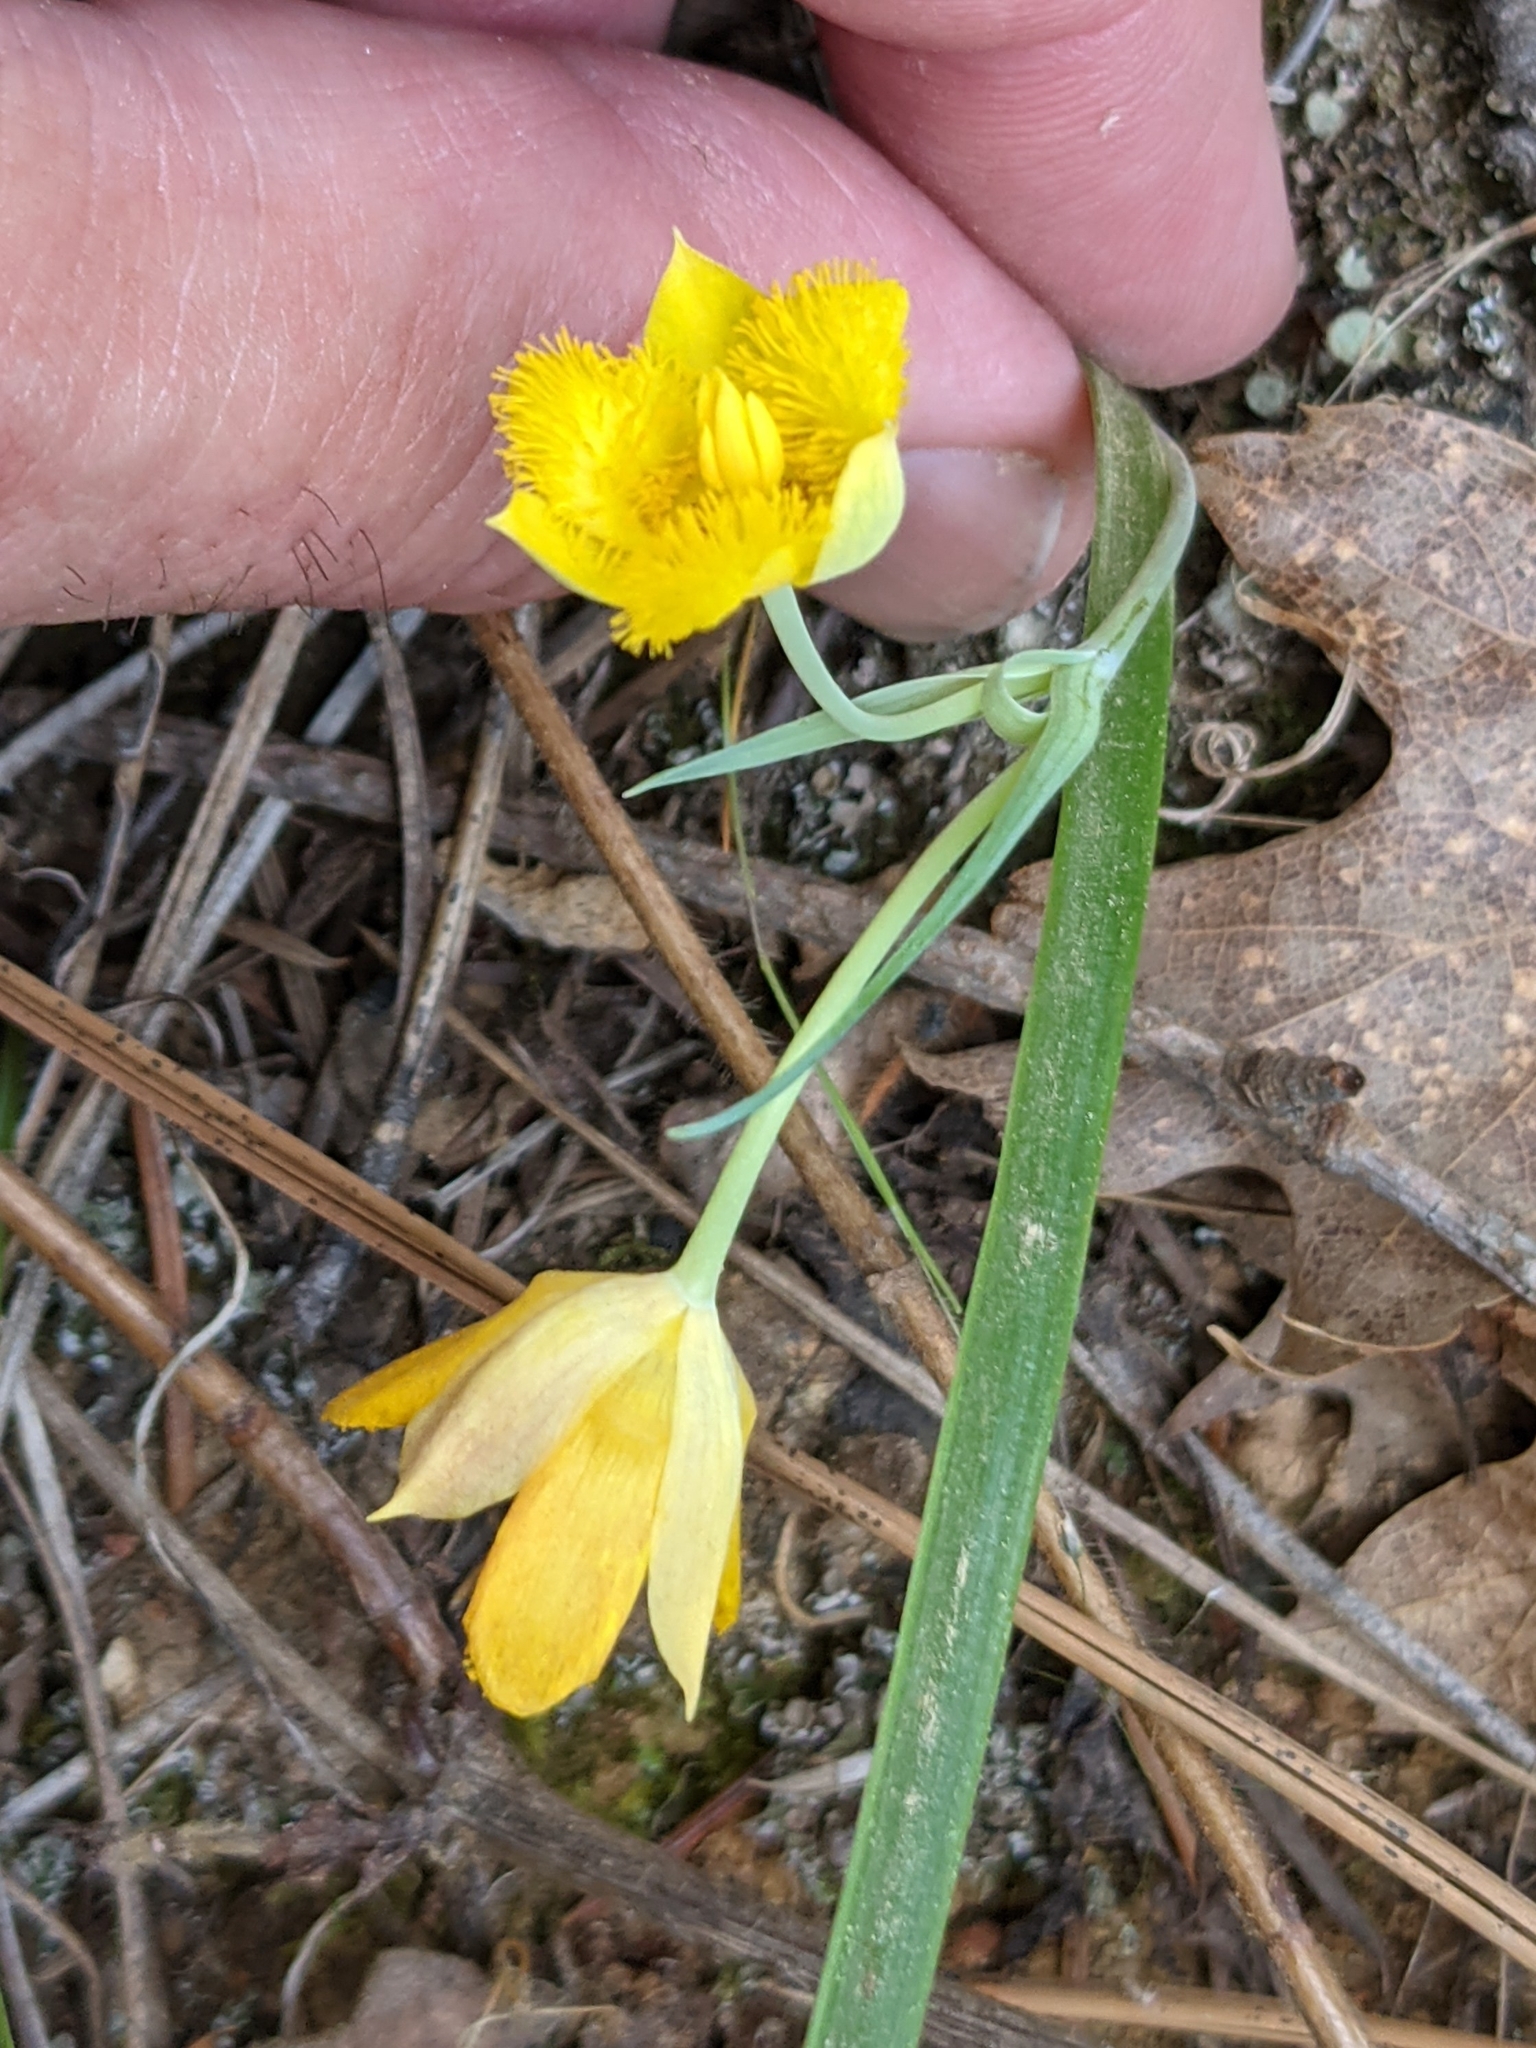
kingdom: Plantae
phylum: Tracheophyta
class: Liliopsida
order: Liliales
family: Liliaceae
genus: Calochortus
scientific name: Calochortus monophyllus
